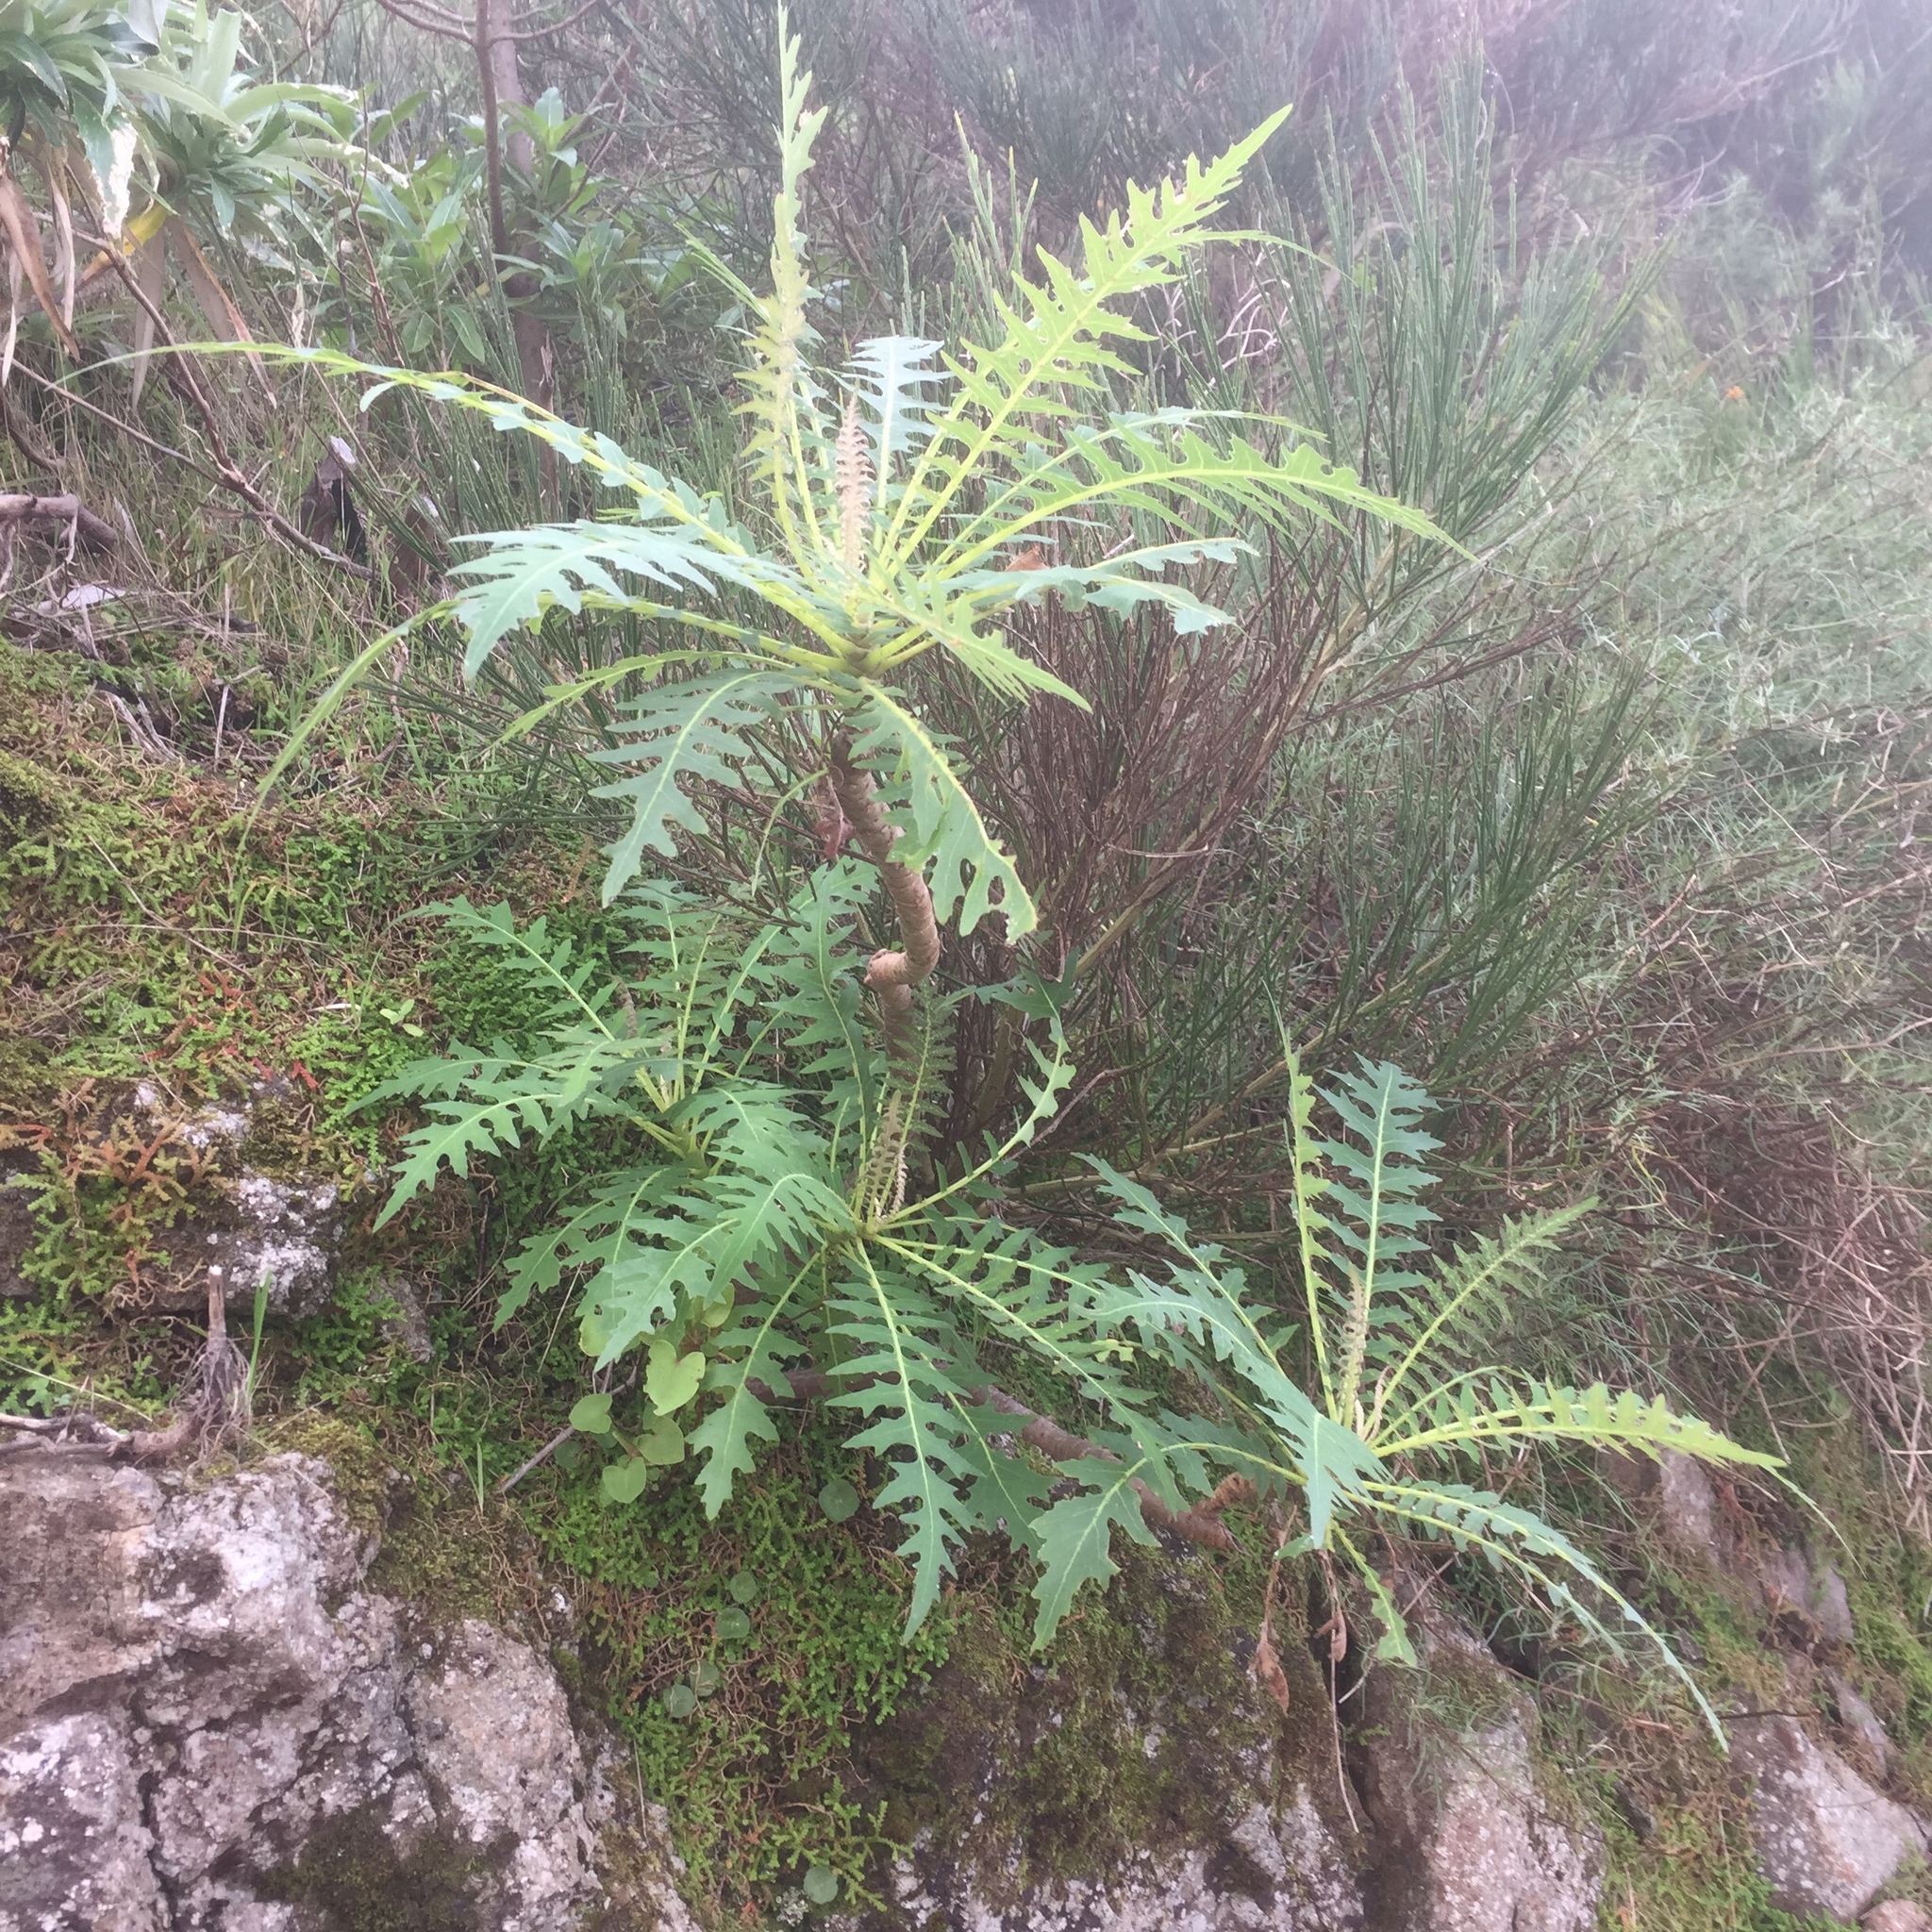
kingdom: Plantae
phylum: Tracheophyta
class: Magnoliopsida
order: Asterales
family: Asteraceae
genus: Sonchus
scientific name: Sonchus pinnatus
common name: Wing-leaved sow-thistle
